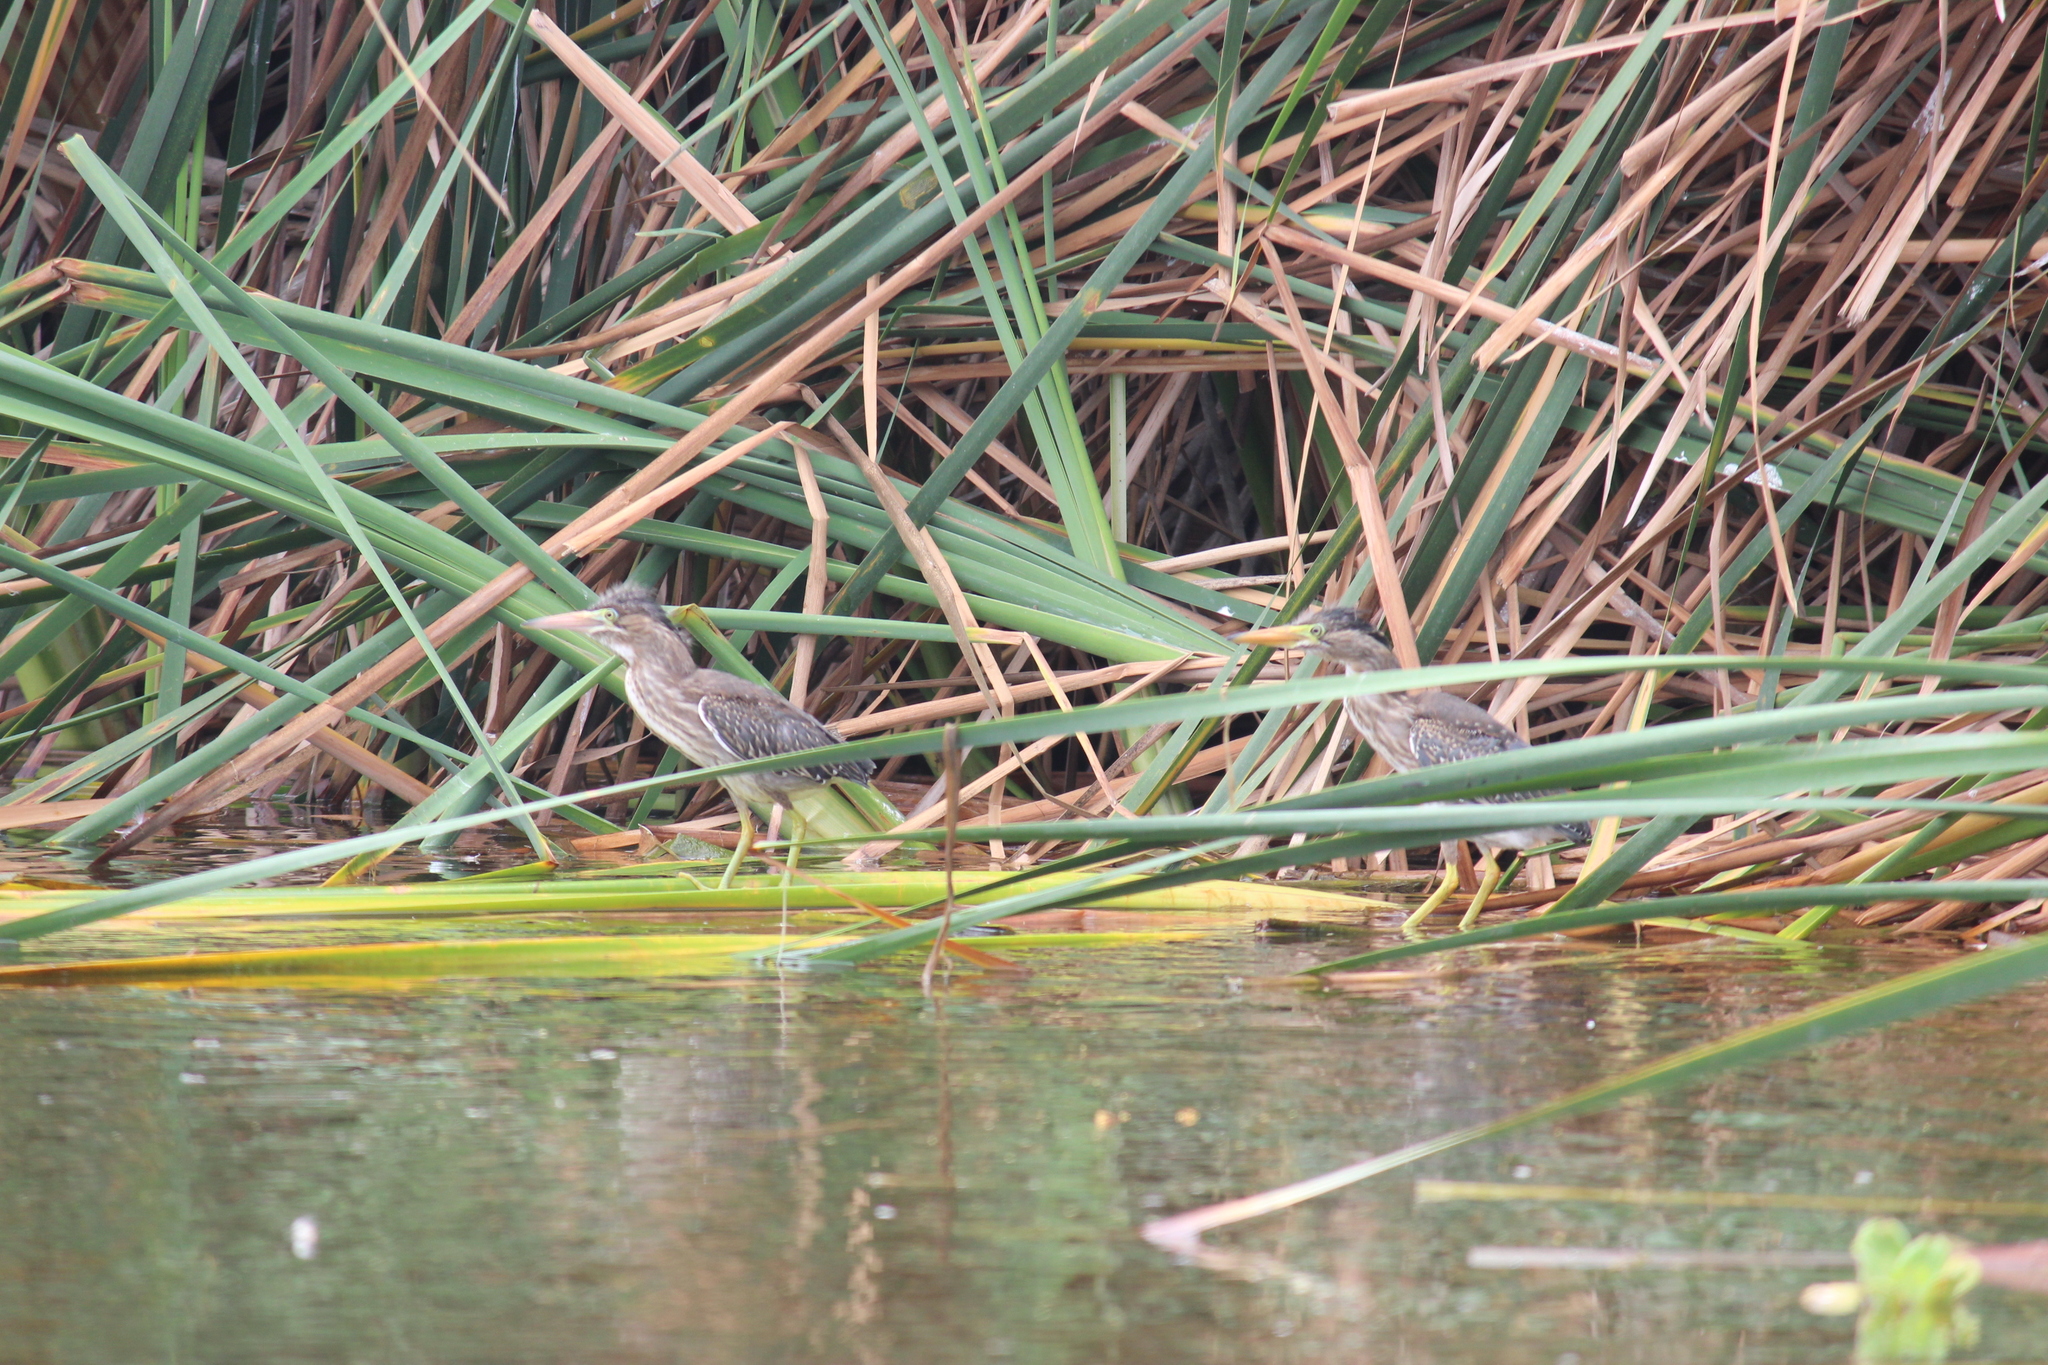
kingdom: Animalia
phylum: Chordata
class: Aves
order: Pelecaniformes
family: Ardeidae
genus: Butorides
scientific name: Butorides striata
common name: Striated heron
